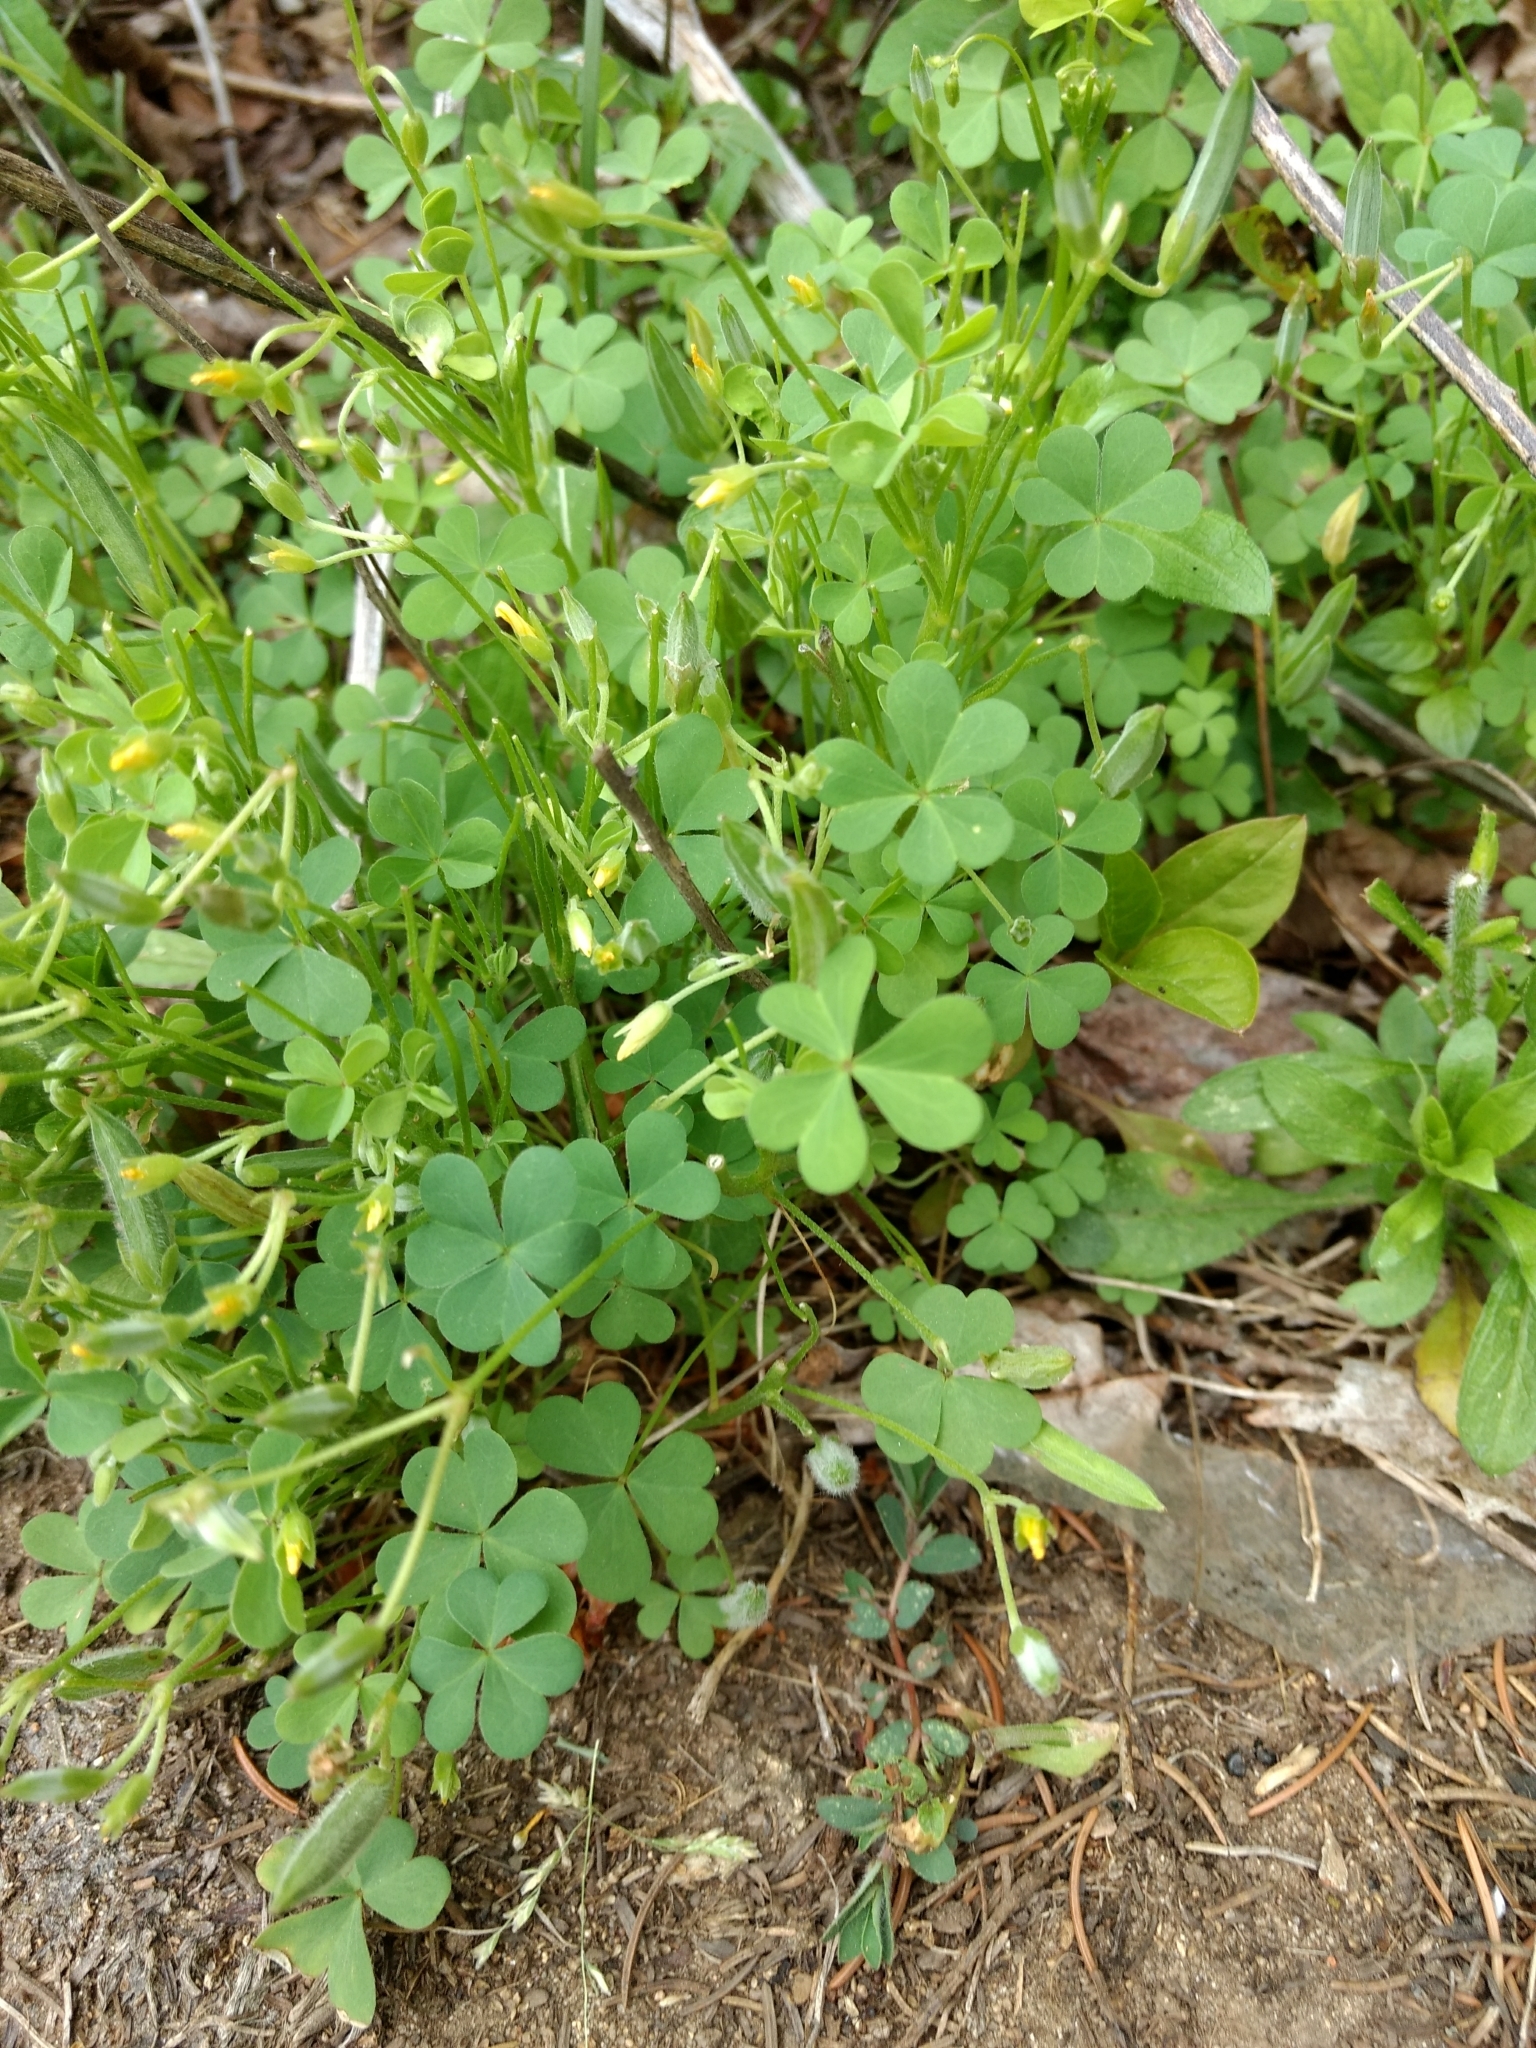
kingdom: Plantae
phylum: Tracheophyta
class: Magnoliopsida
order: Oxalidales
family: Oxalidaceae
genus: Oxalis
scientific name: Oxalis dillenii
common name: Sussex yellow-sorrel
